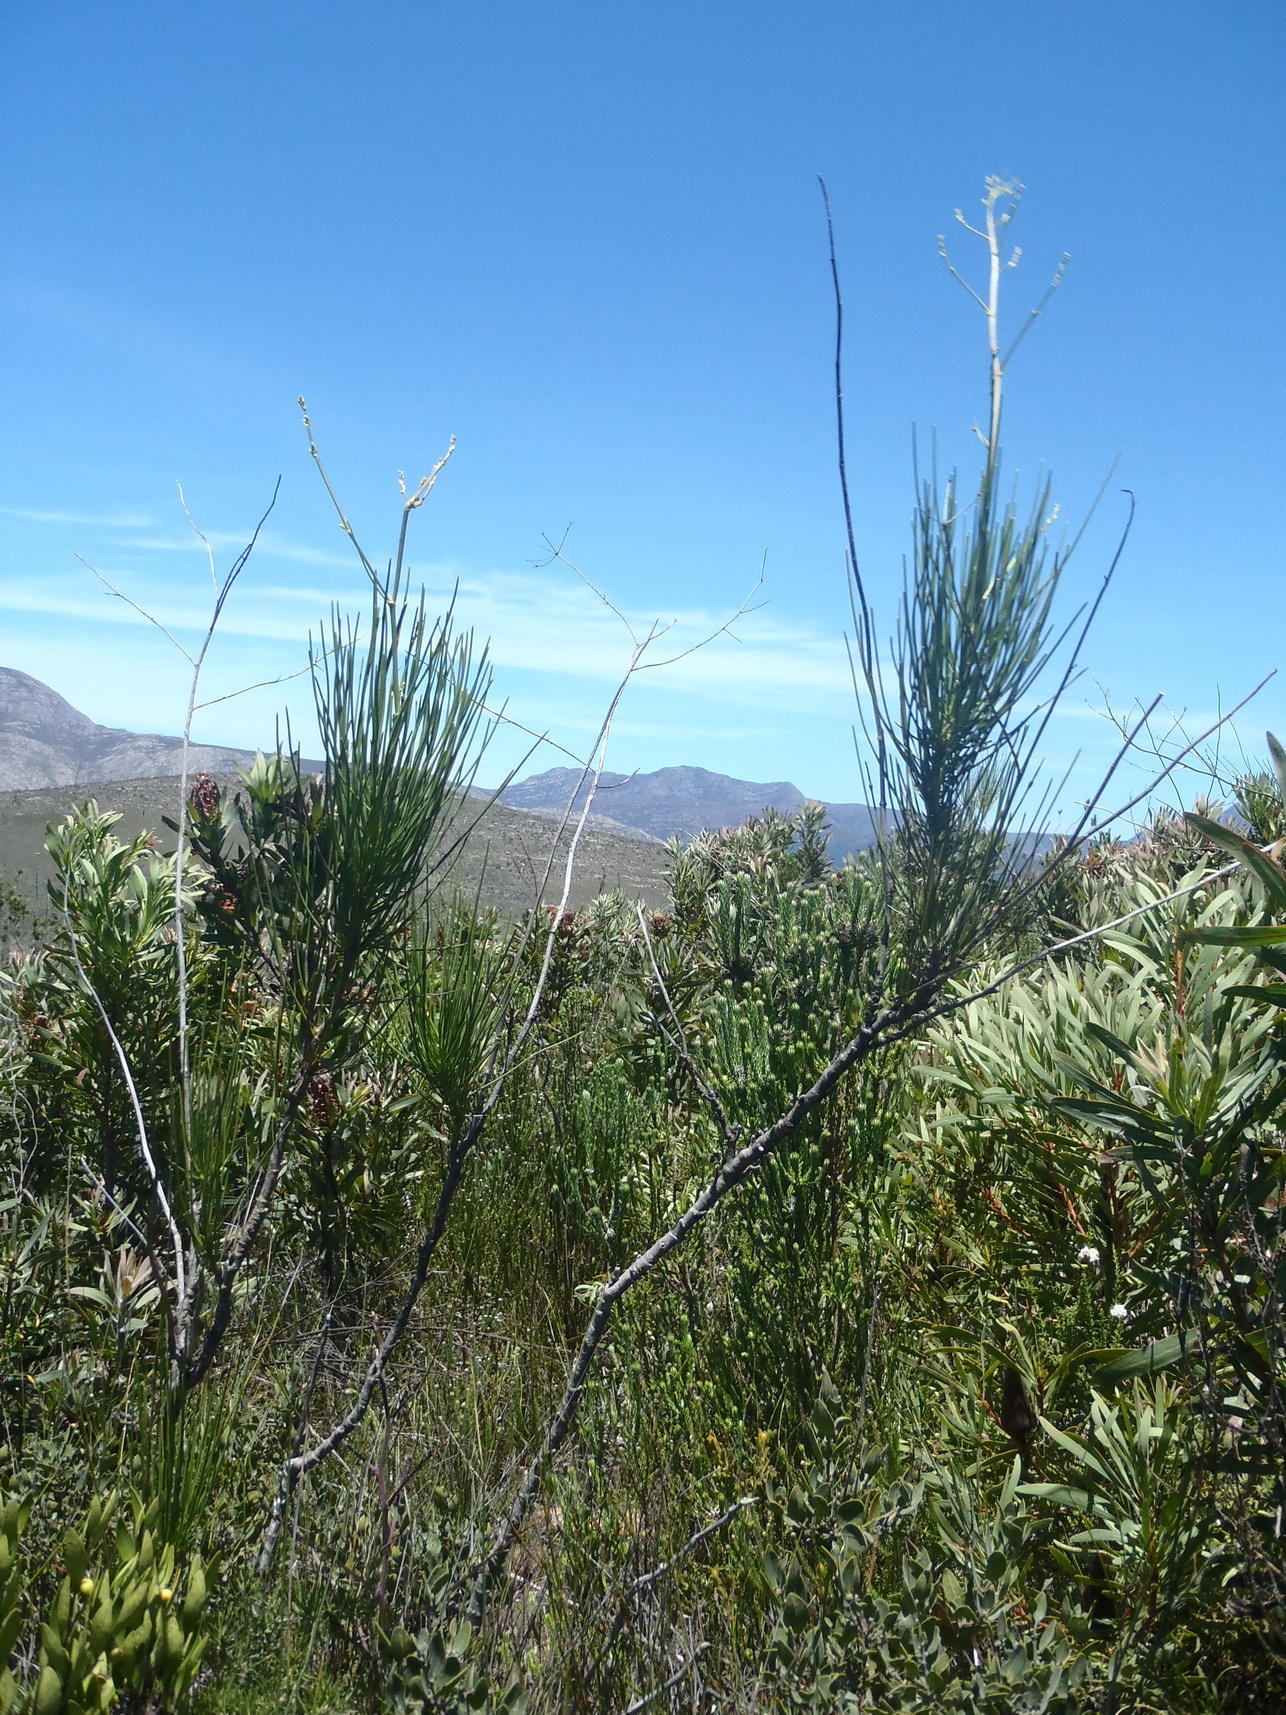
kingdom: Plantae
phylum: Tracheophyta
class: Magnoliopsida
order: Apiales
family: Apiaceae
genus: Anginon
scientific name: Anginon difforme
